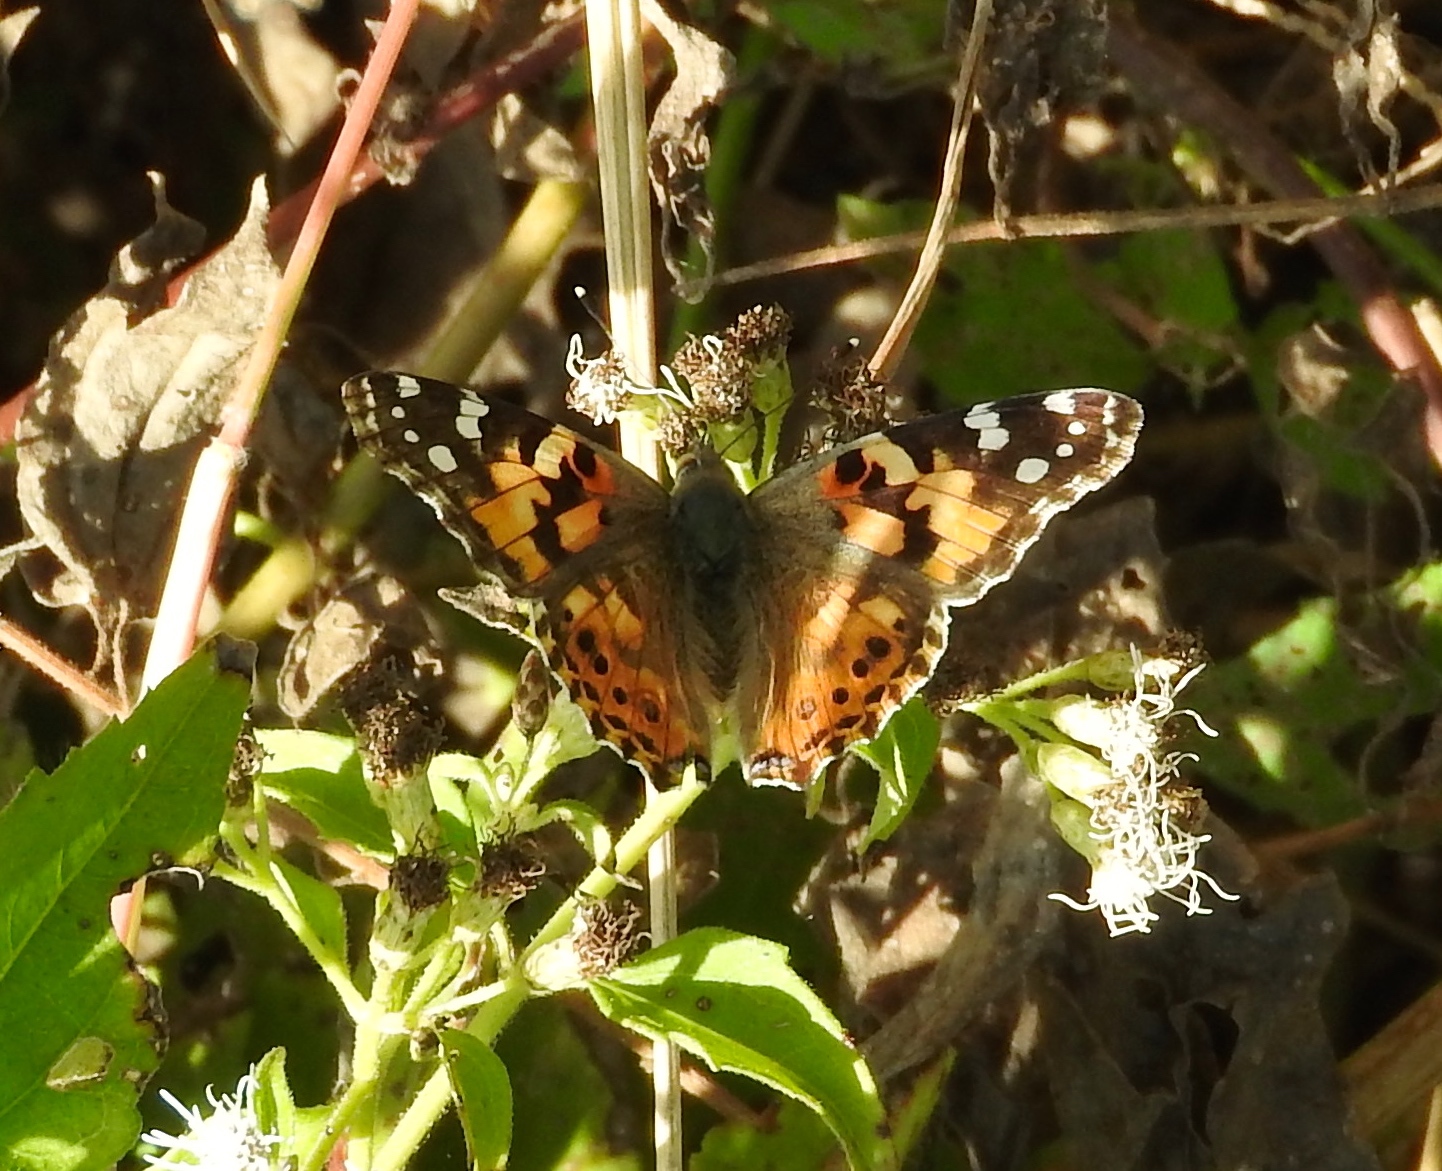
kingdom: Animalia
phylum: Arthropoda
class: Insecta
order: Lepidoptera
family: Nymphalidae
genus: Vanessa
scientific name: Vanessa cardui
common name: Painted lady
